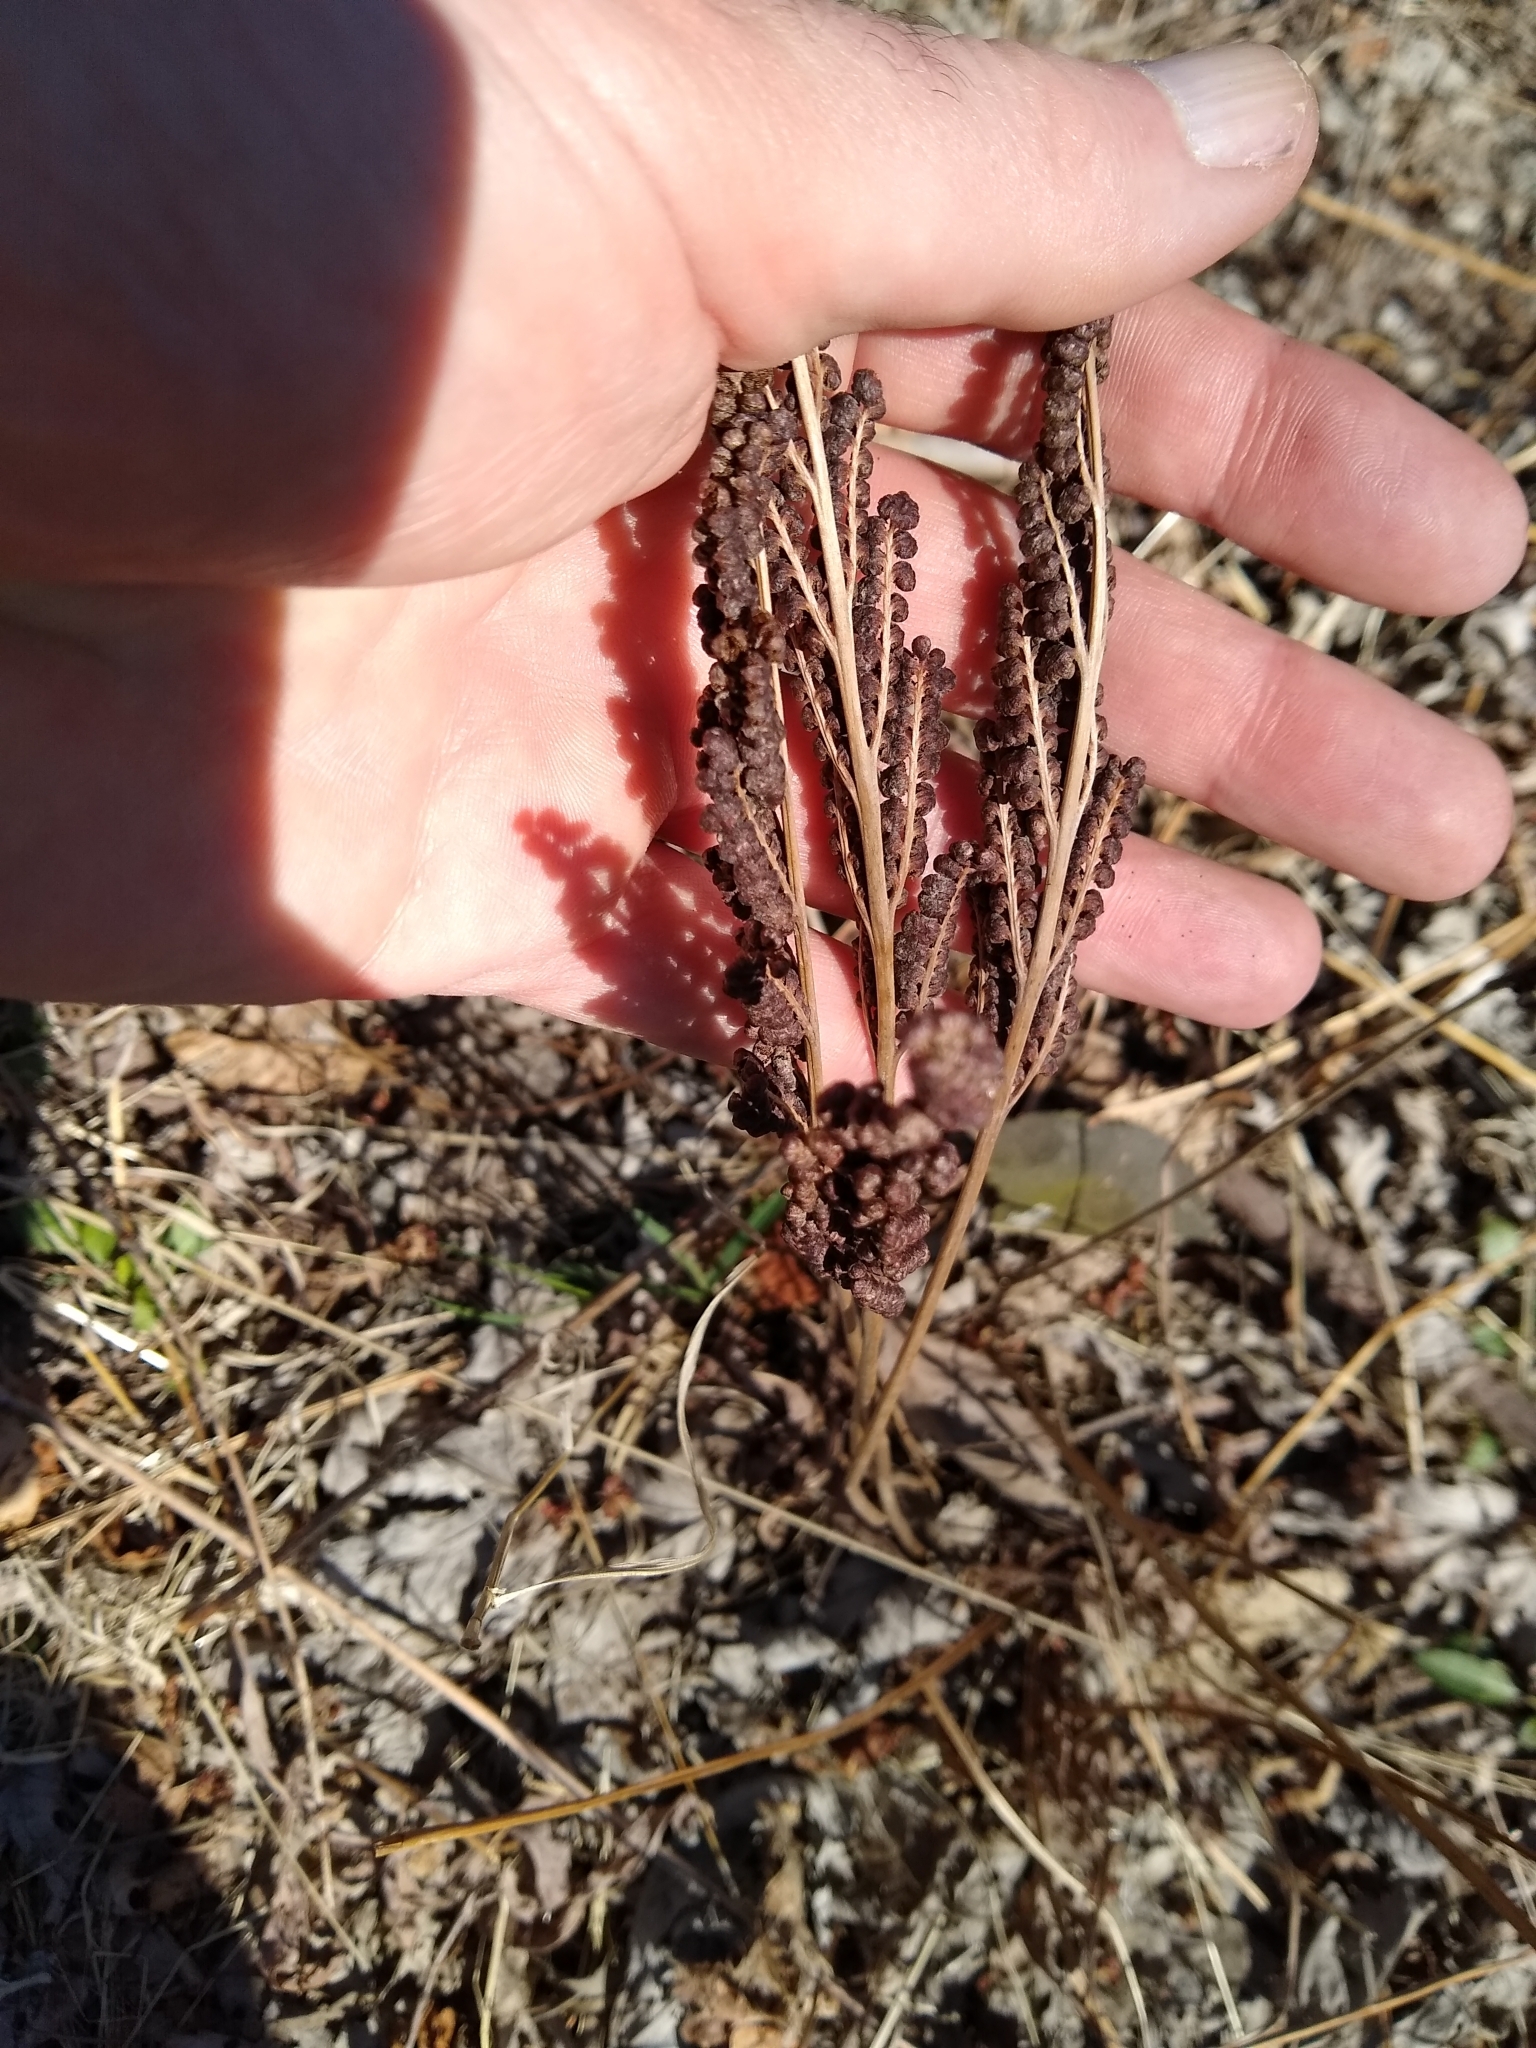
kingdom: Plantae
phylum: Tracheophyta
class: Polypodiopsida
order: Polypodiales
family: Onocleaceae
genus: Onoclea
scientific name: Onoclea sensibilis
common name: Sensitive fern
